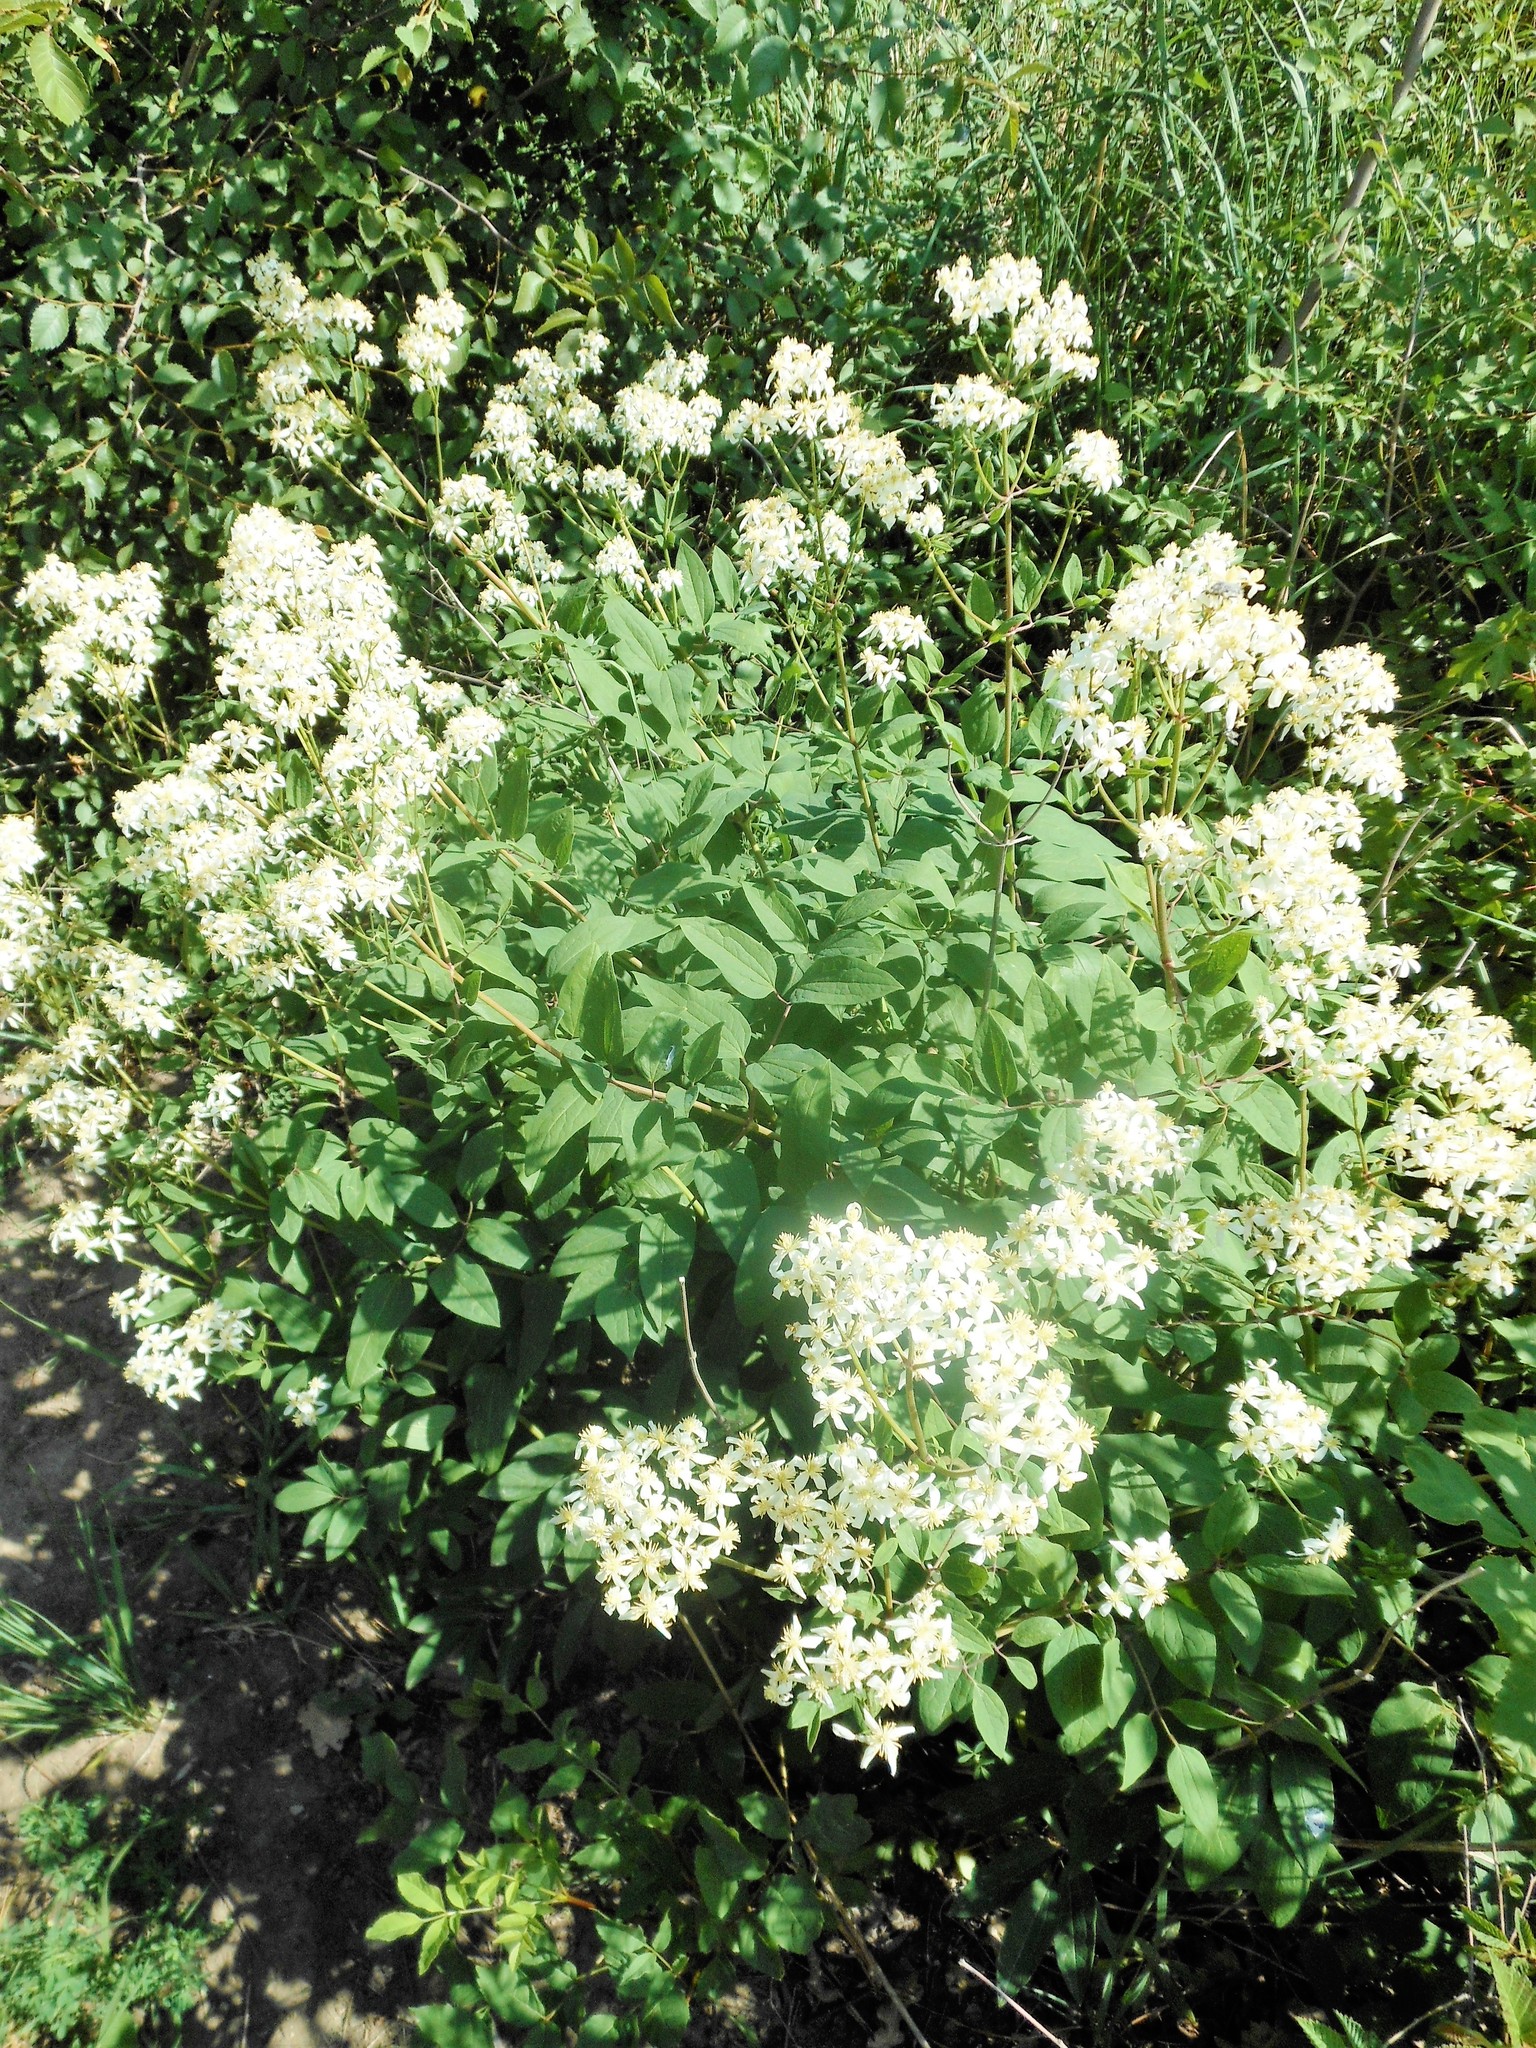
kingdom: Plantae
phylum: Tracheophyta
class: Magnoliopsida
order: Ranunculales
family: Ranunculaceae
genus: Clematis
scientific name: Clematis recta
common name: Ground clematis
